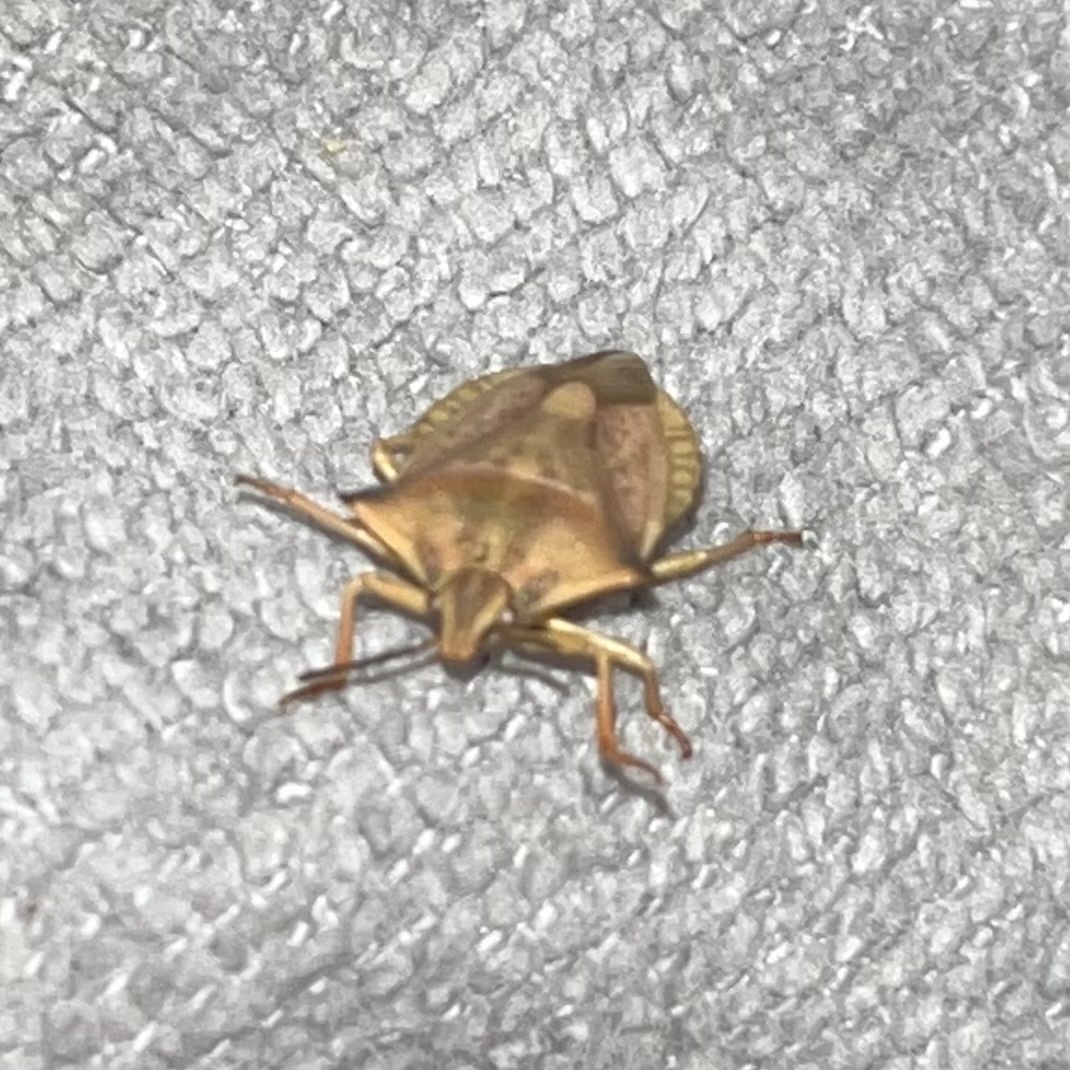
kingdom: Animalia
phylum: Arthropoda
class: Insecta
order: Hemiptera
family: Pentatomidae
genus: Carpocoris
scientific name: Carpocoris fuscispinus
